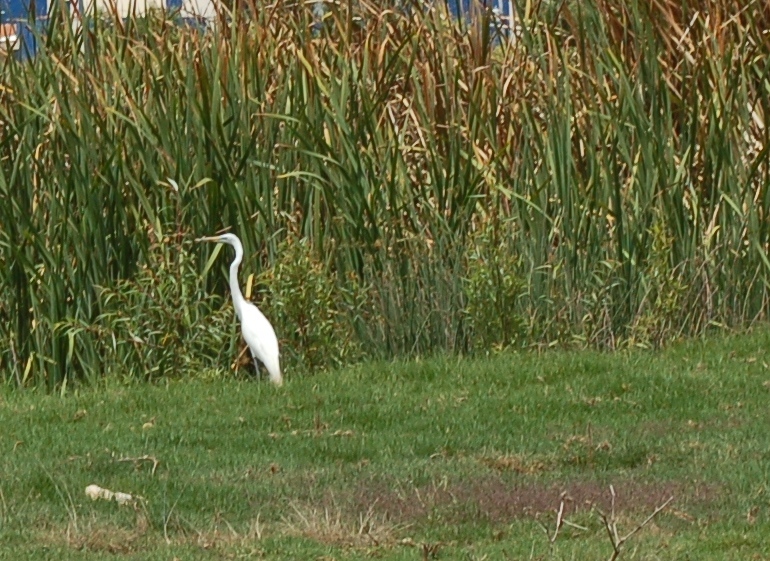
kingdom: Animalia
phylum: Chordata
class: Aves
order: Pelecaniformes
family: Ardeidae
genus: Ardea
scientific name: Ardea alba
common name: Great egret
